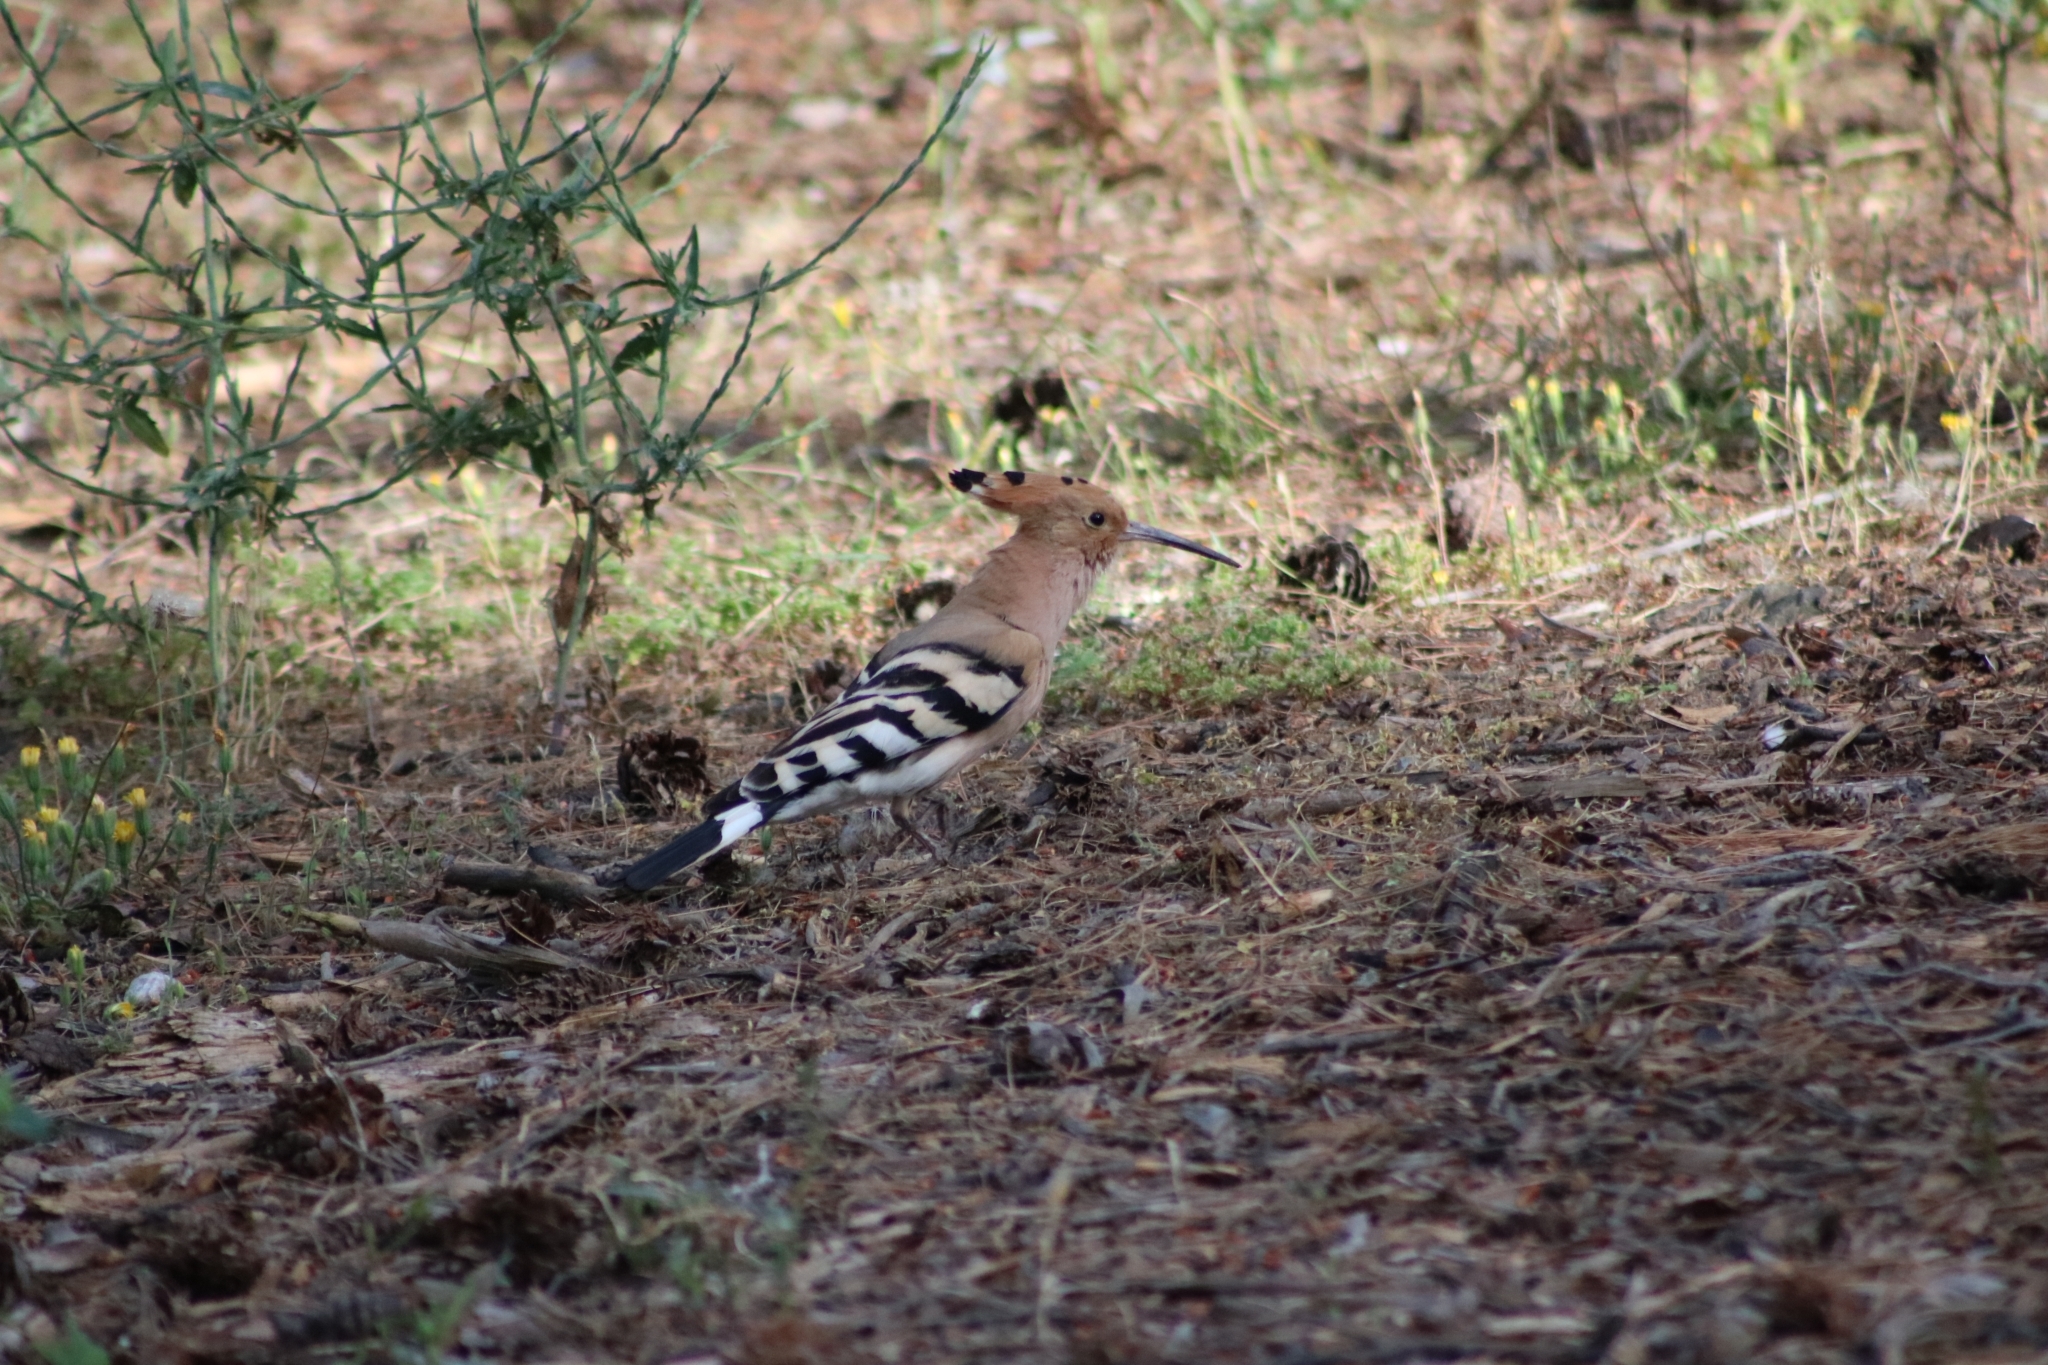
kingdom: Animalia
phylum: Chordata
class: Aves
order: Bucerotiformes
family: Upupidae
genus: Upupa
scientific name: Upupa epops
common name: Eurasian hoopoe
